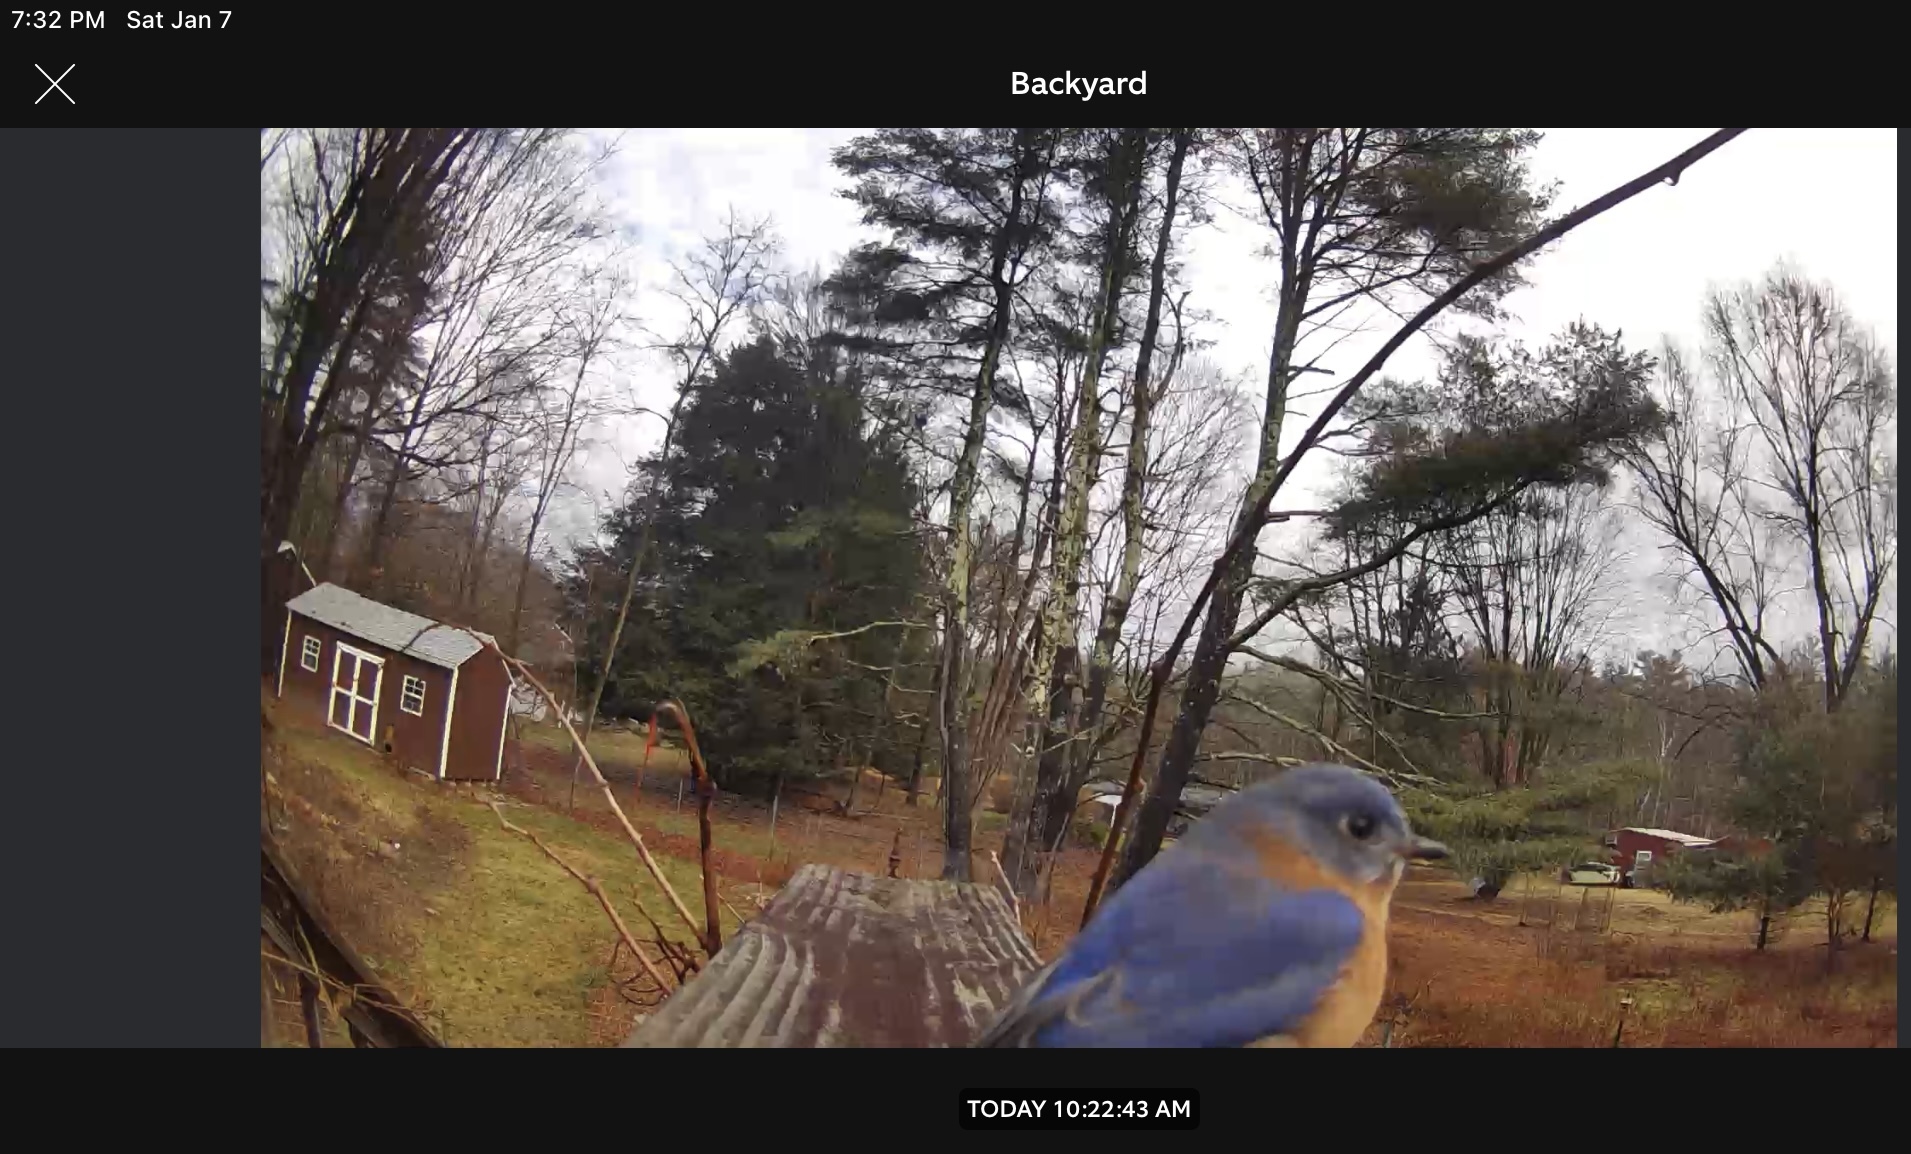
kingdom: Animalia
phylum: Chordata
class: Aves
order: Passeriformes
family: Turdidae
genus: Sialia
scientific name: Sialia sialis
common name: Eastern bluebird
